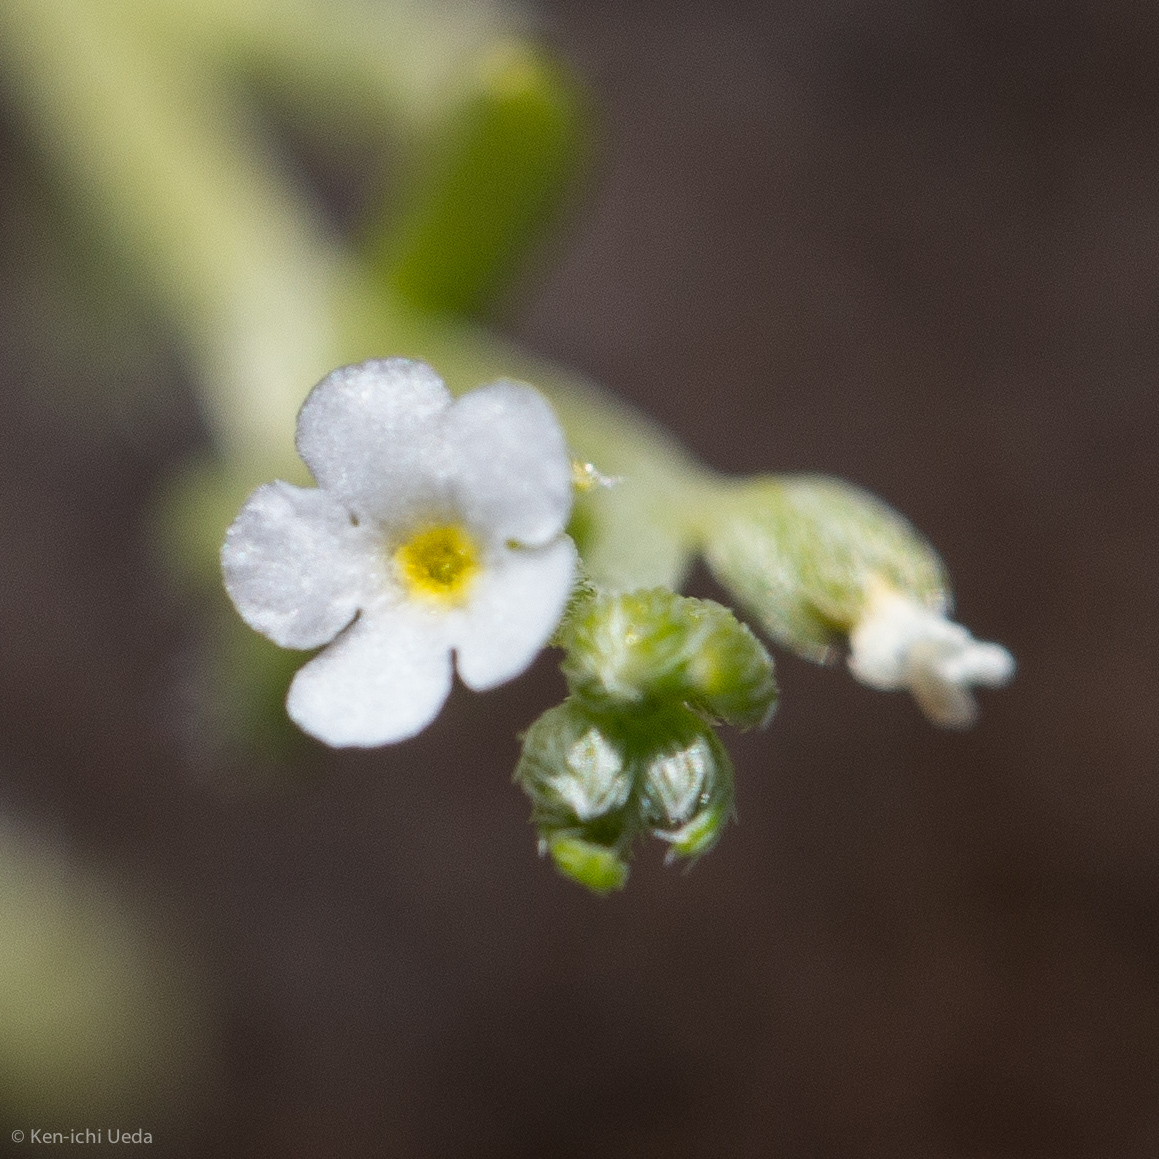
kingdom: Plantae
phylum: Tracheophyta
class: Magnoliopsida
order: Boraginales
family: Boraginaceae
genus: Pectocarya
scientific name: Pectocarya linearis
